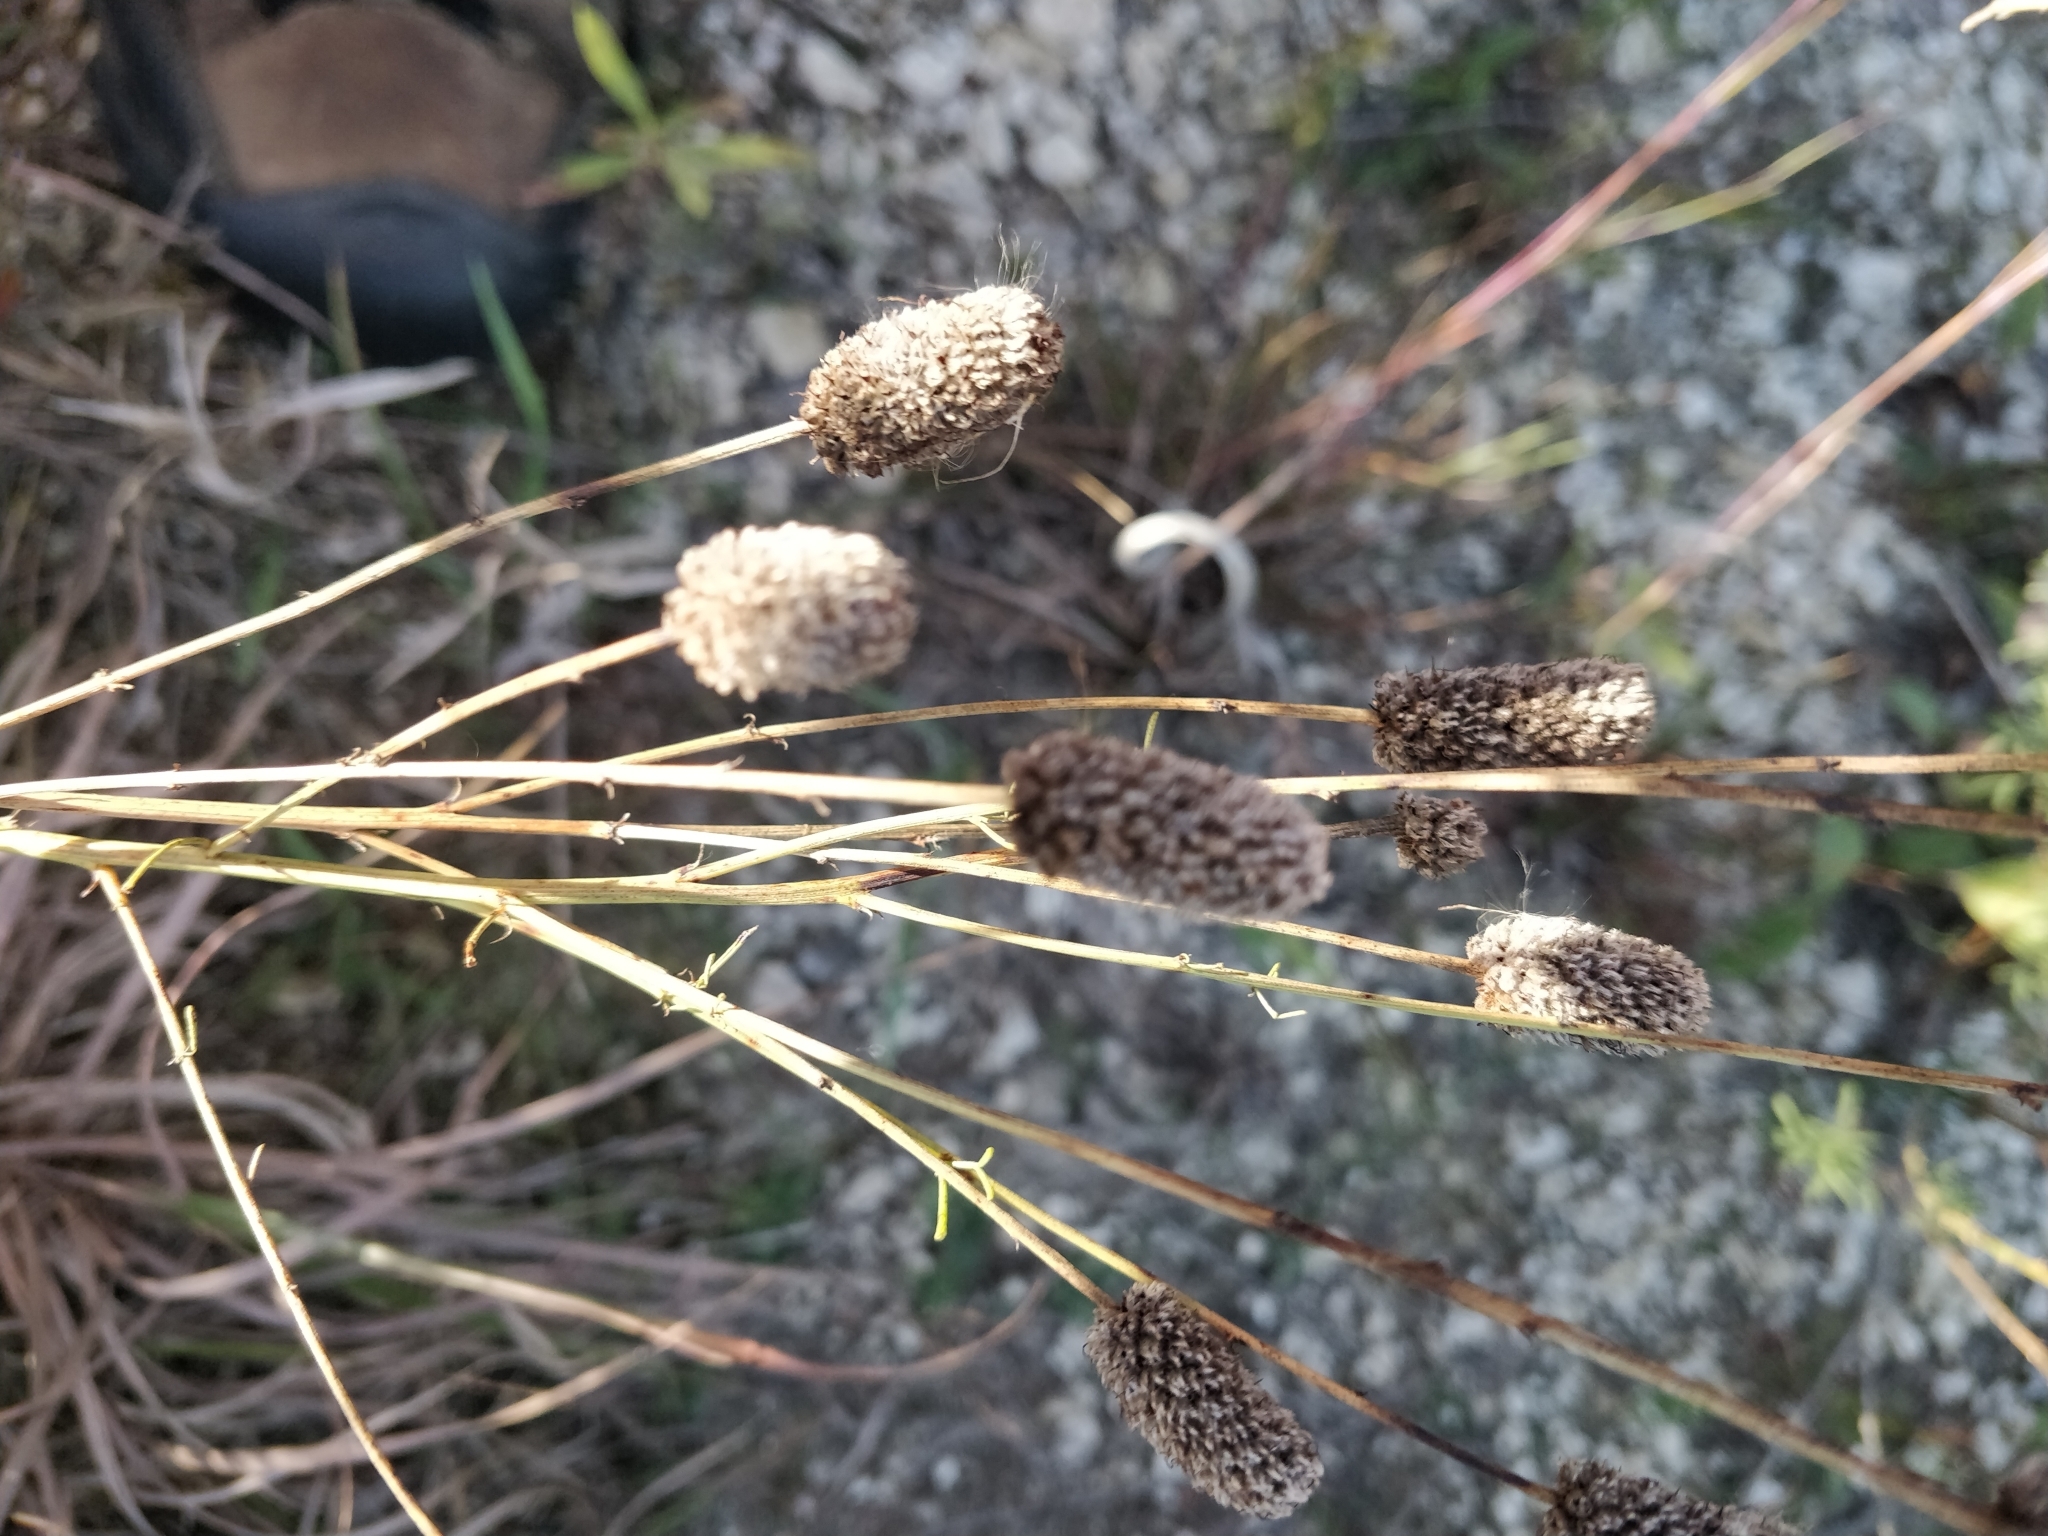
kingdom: Plantae
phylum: Tracheophyta
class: Magnoliopsida
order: Fabales
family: Fabaceae
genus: Dalea
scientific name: Dalea purpurea
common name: Purple prairie-clover
